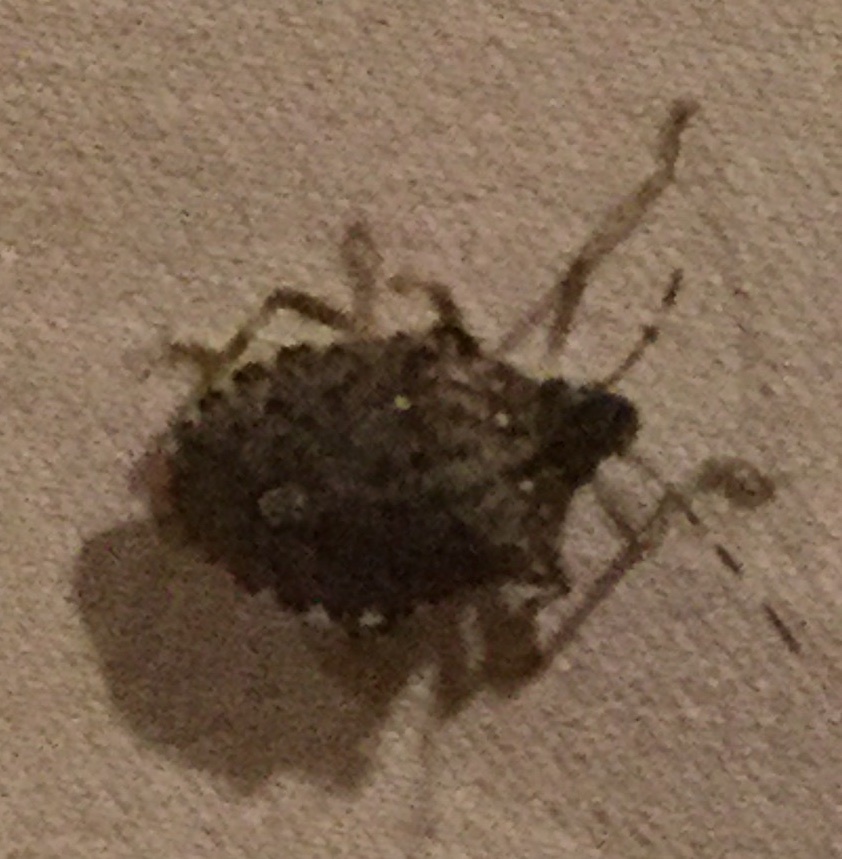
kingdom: Animalia
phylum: Arthropoda
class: Insecta
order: Hemiptera
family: Pentatomidae
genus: Halyomorpha
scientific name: Halyomorpha halys
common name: Brown marmorated stink bug
